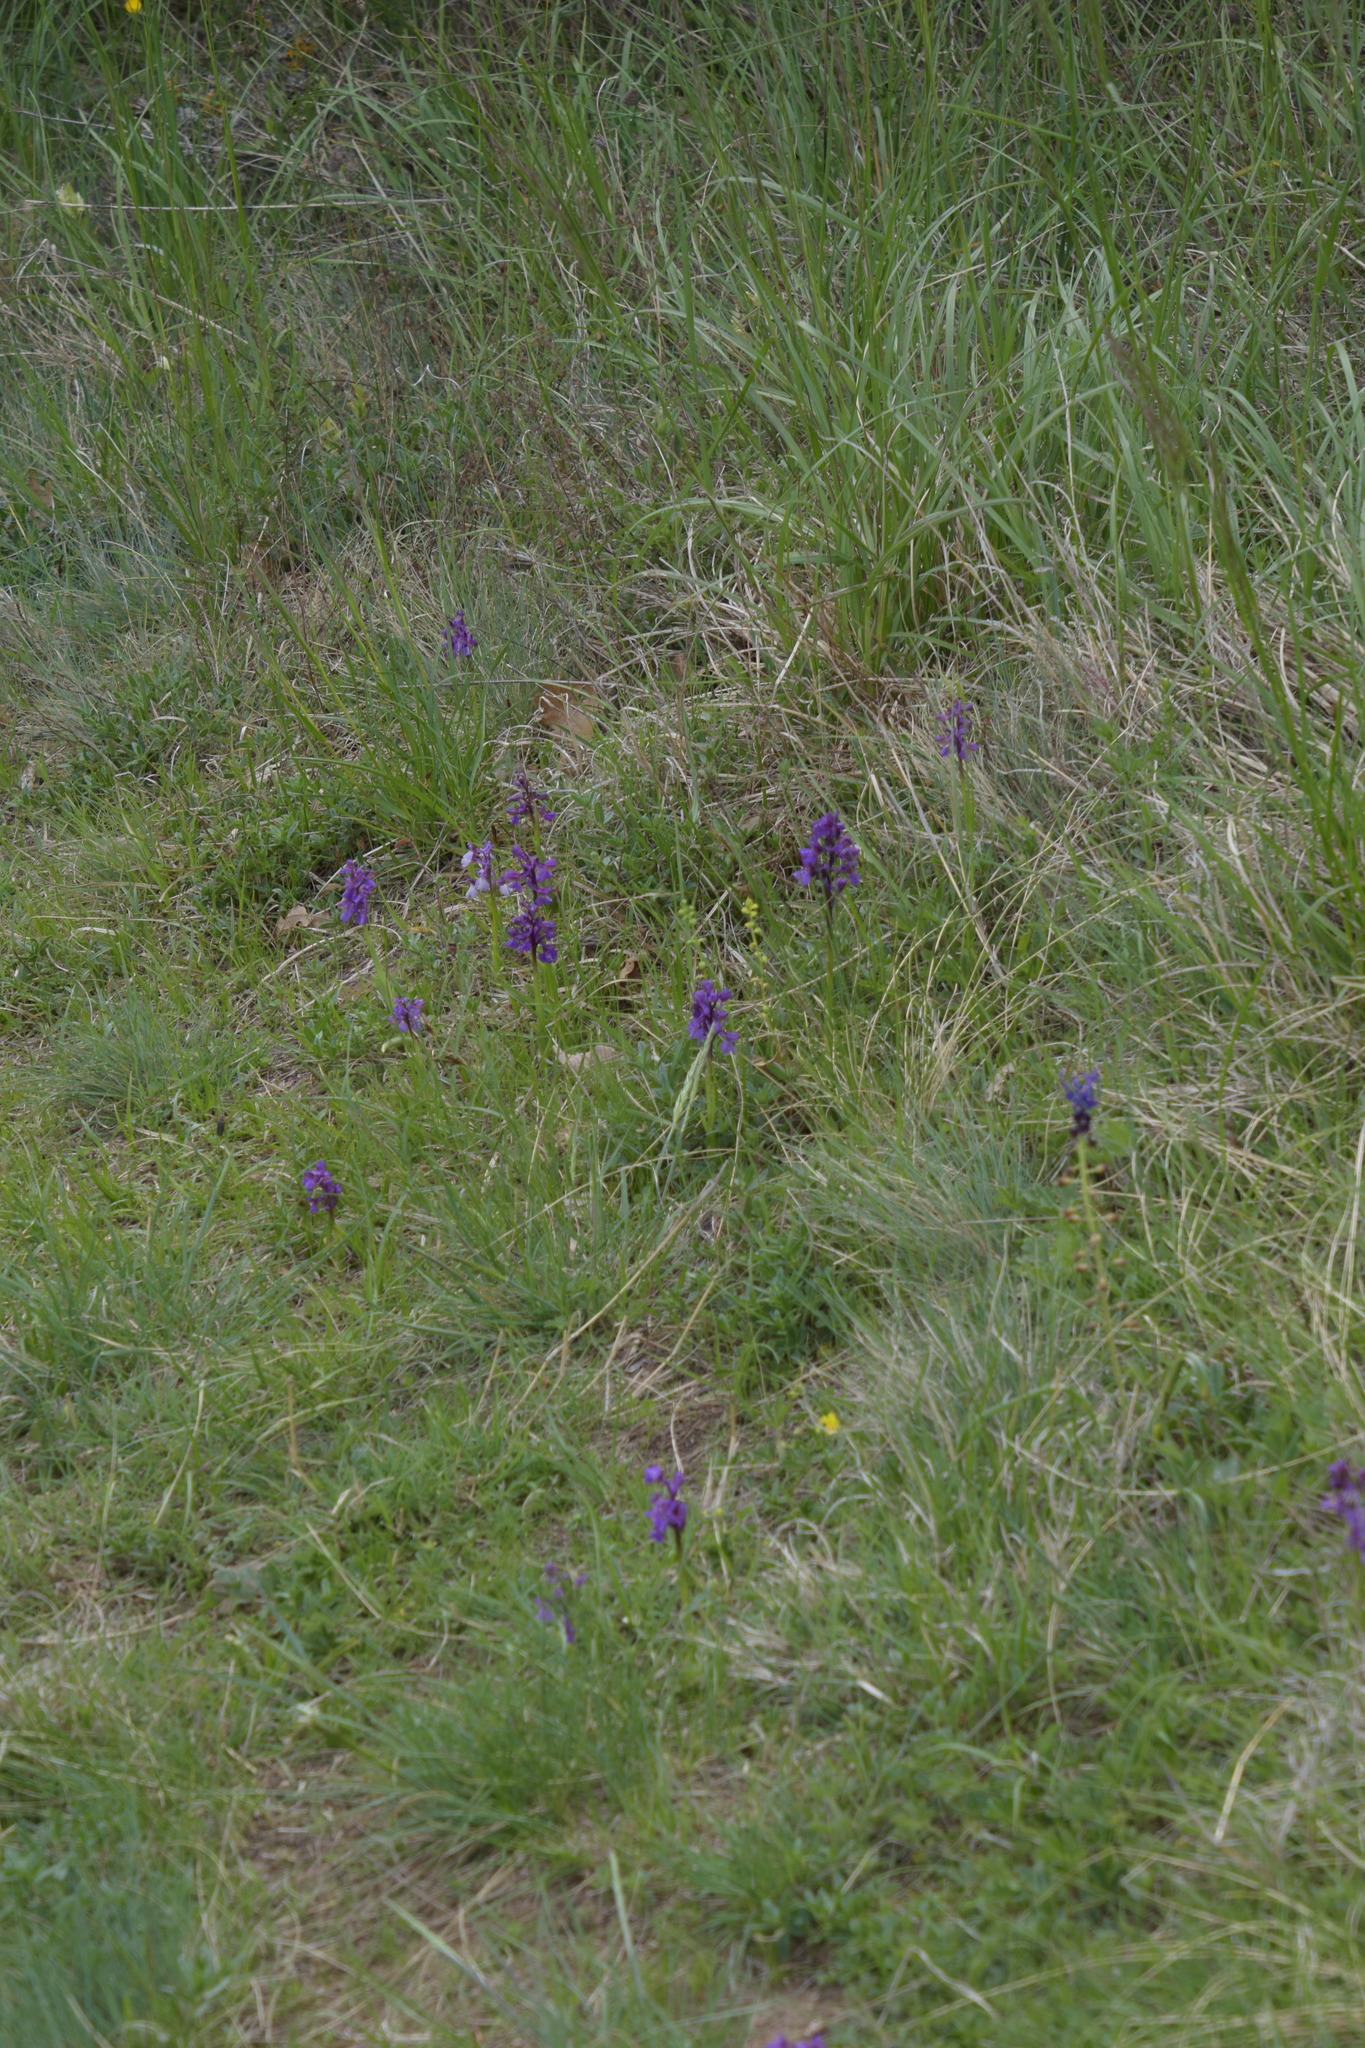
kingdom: Plantae
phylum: Tracheophyta
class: Liliopsida
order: Asparagales
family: Orchidaceae
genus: Anacamptis
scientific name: Anacamptis morio
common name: Green-winged orchid
